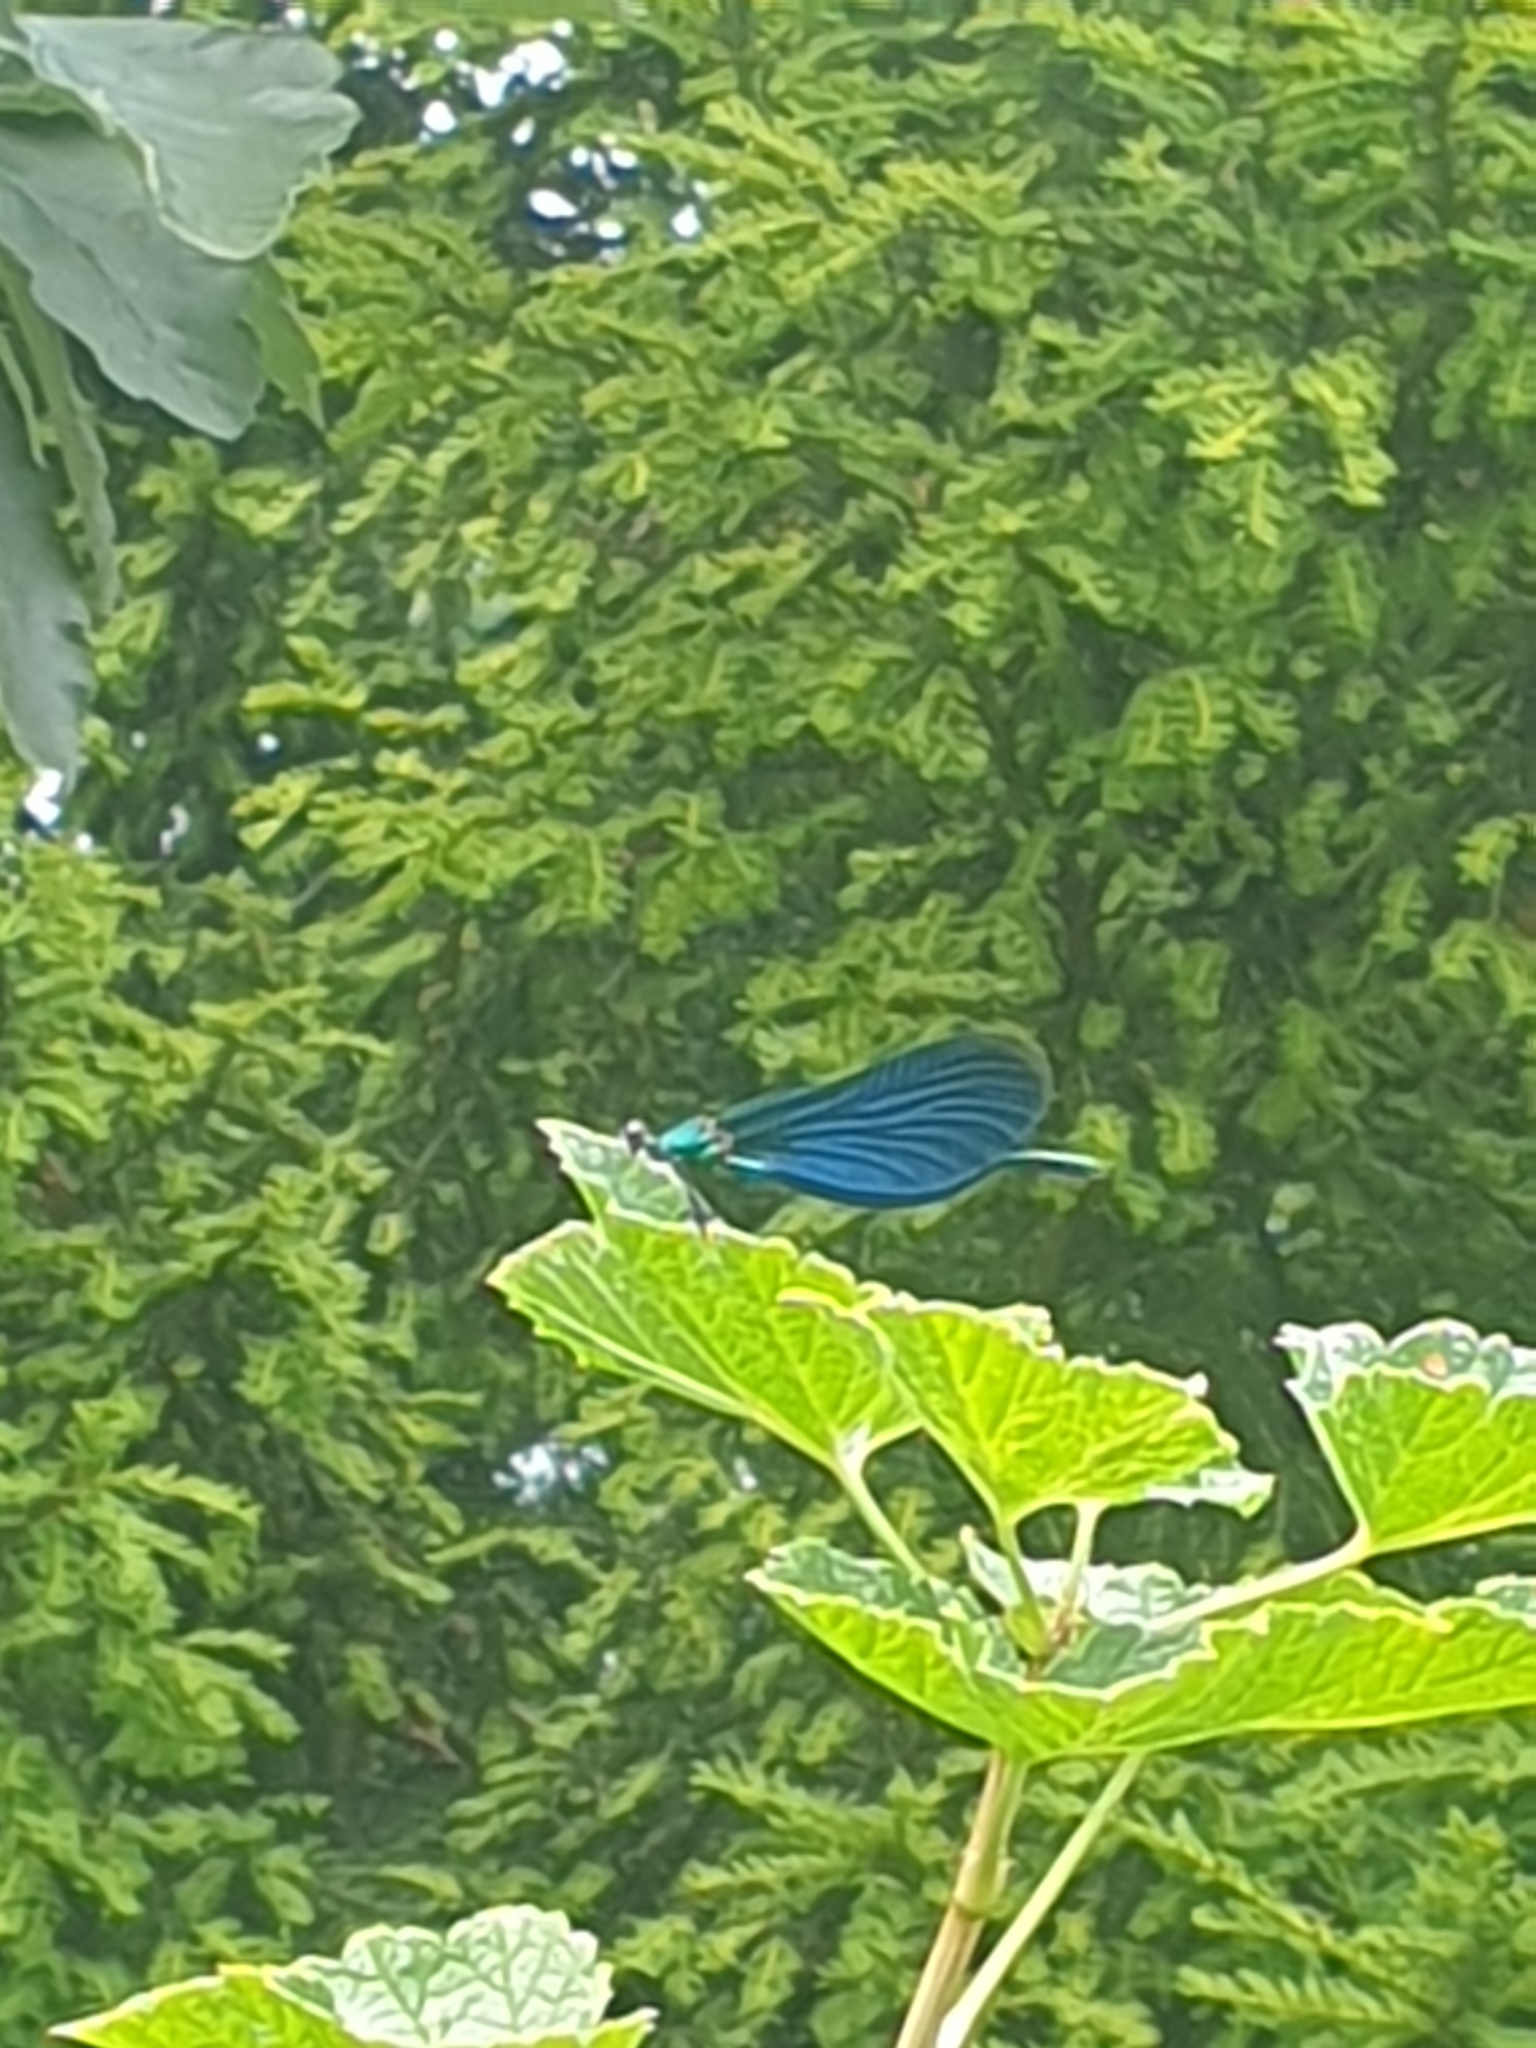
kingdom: Animalia
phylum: Arthropoda
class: Insecta
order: Odonata
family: Calopterygidae
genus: Calopteryx
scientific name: Calopteryx virgo
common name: Beautiful demoiselle
